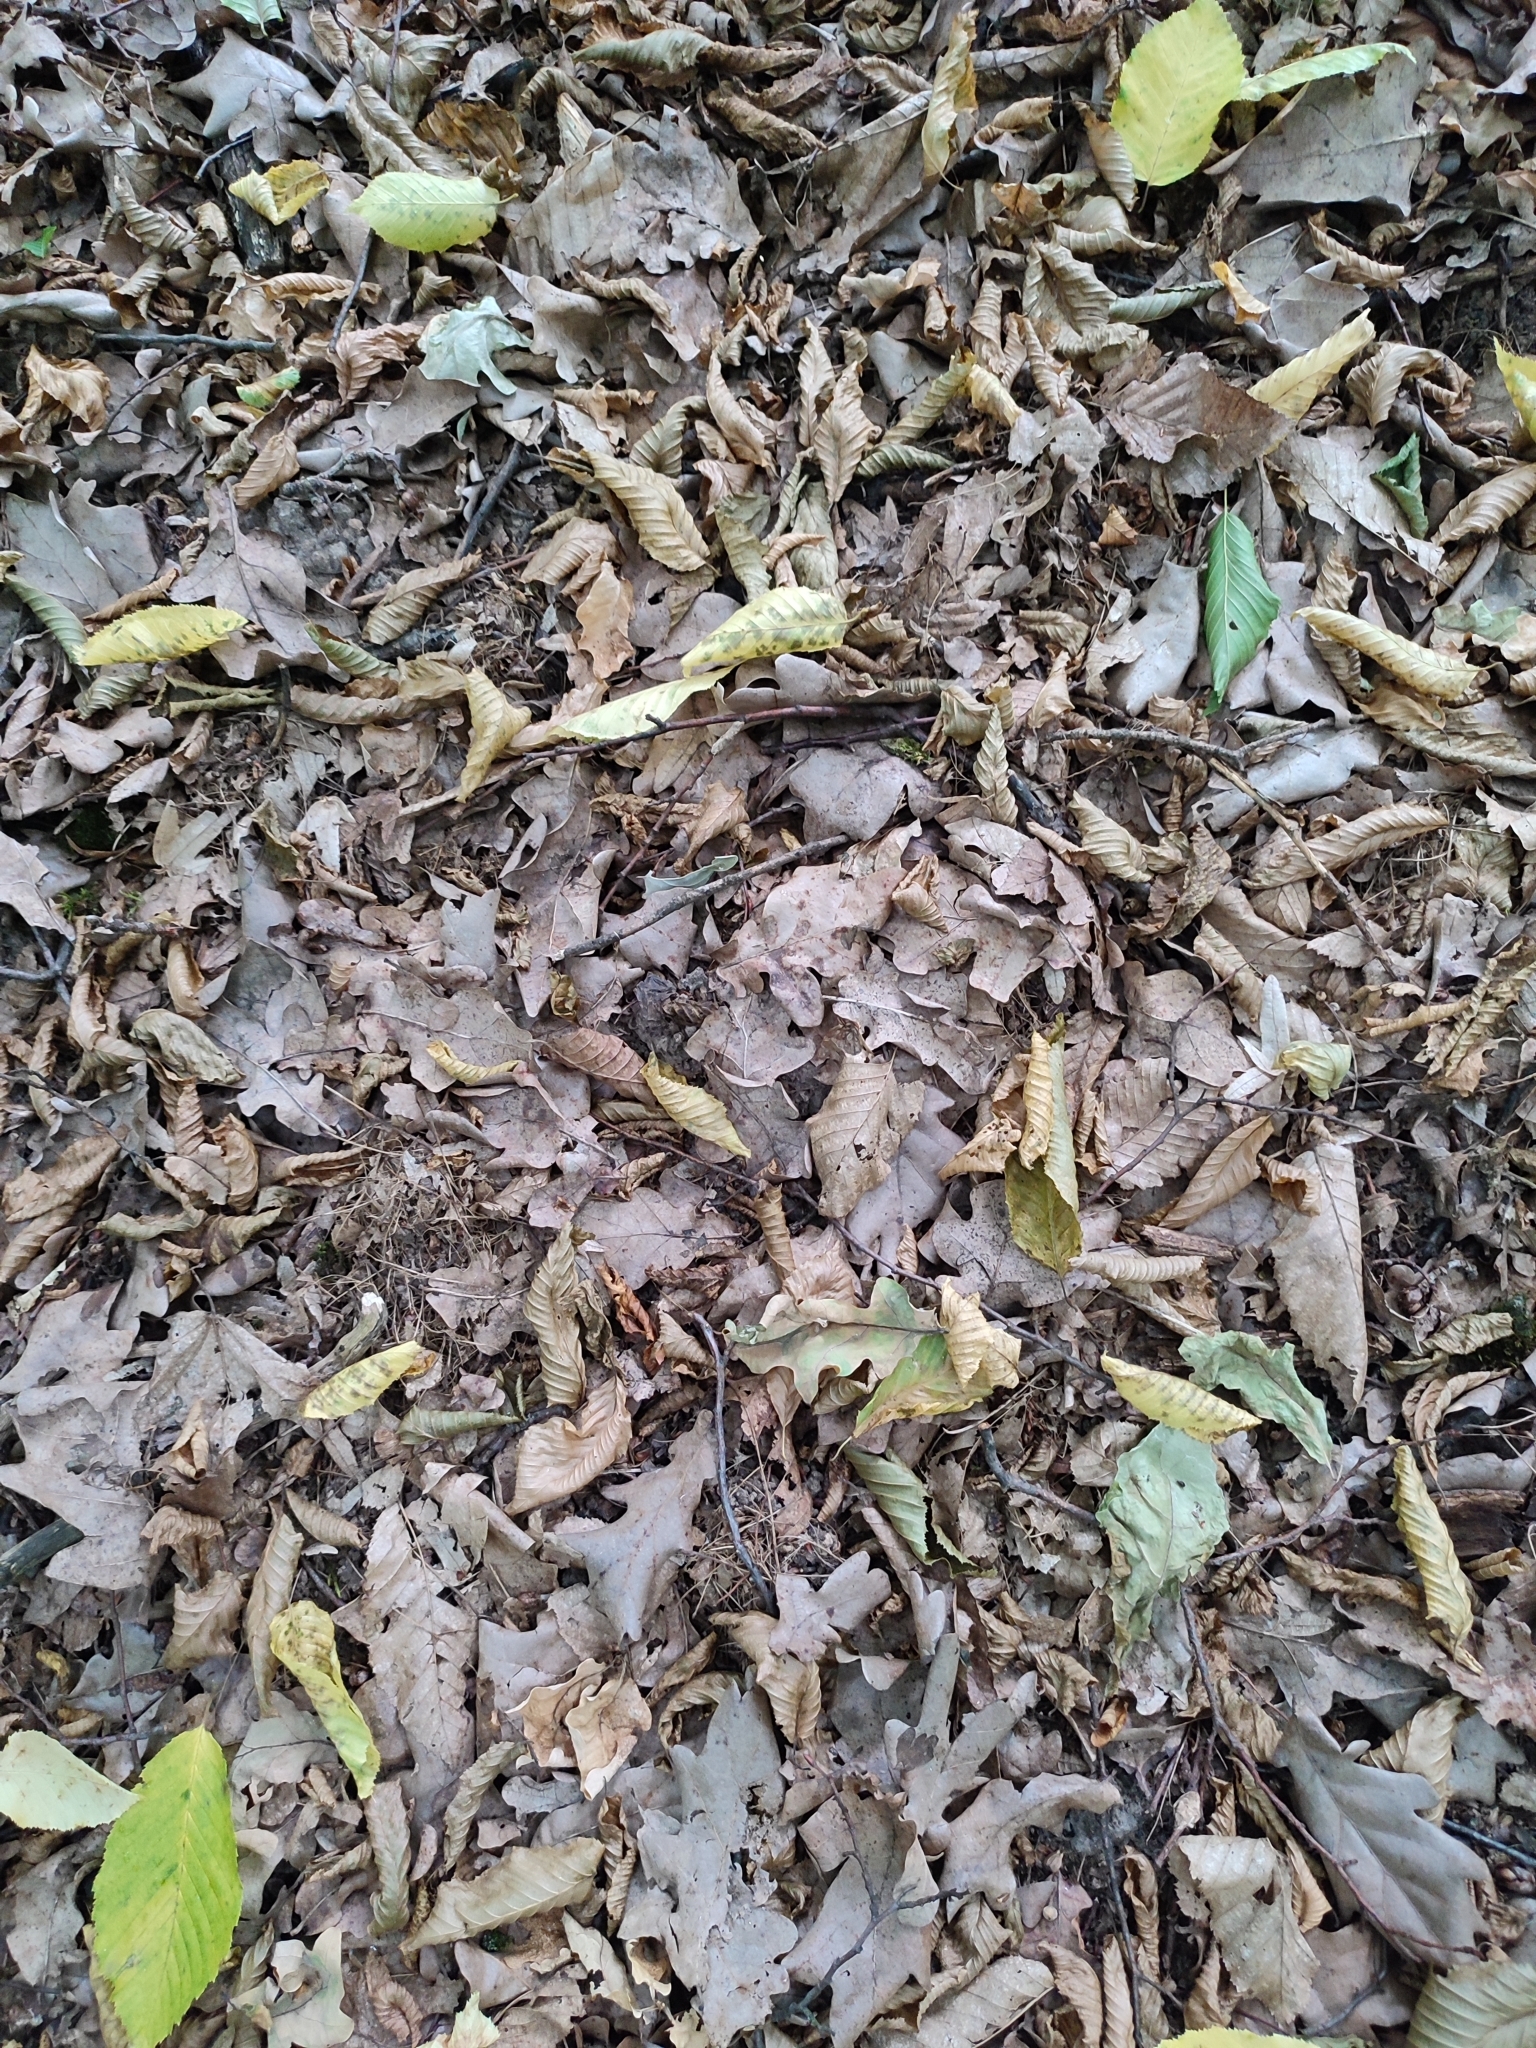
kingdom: Plantae
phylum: Tracheophyta
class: Magnoliopsida
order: Fagales
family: Fagaceae
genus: Quercus
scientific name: Quercus robur
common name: Pedunculate oak
